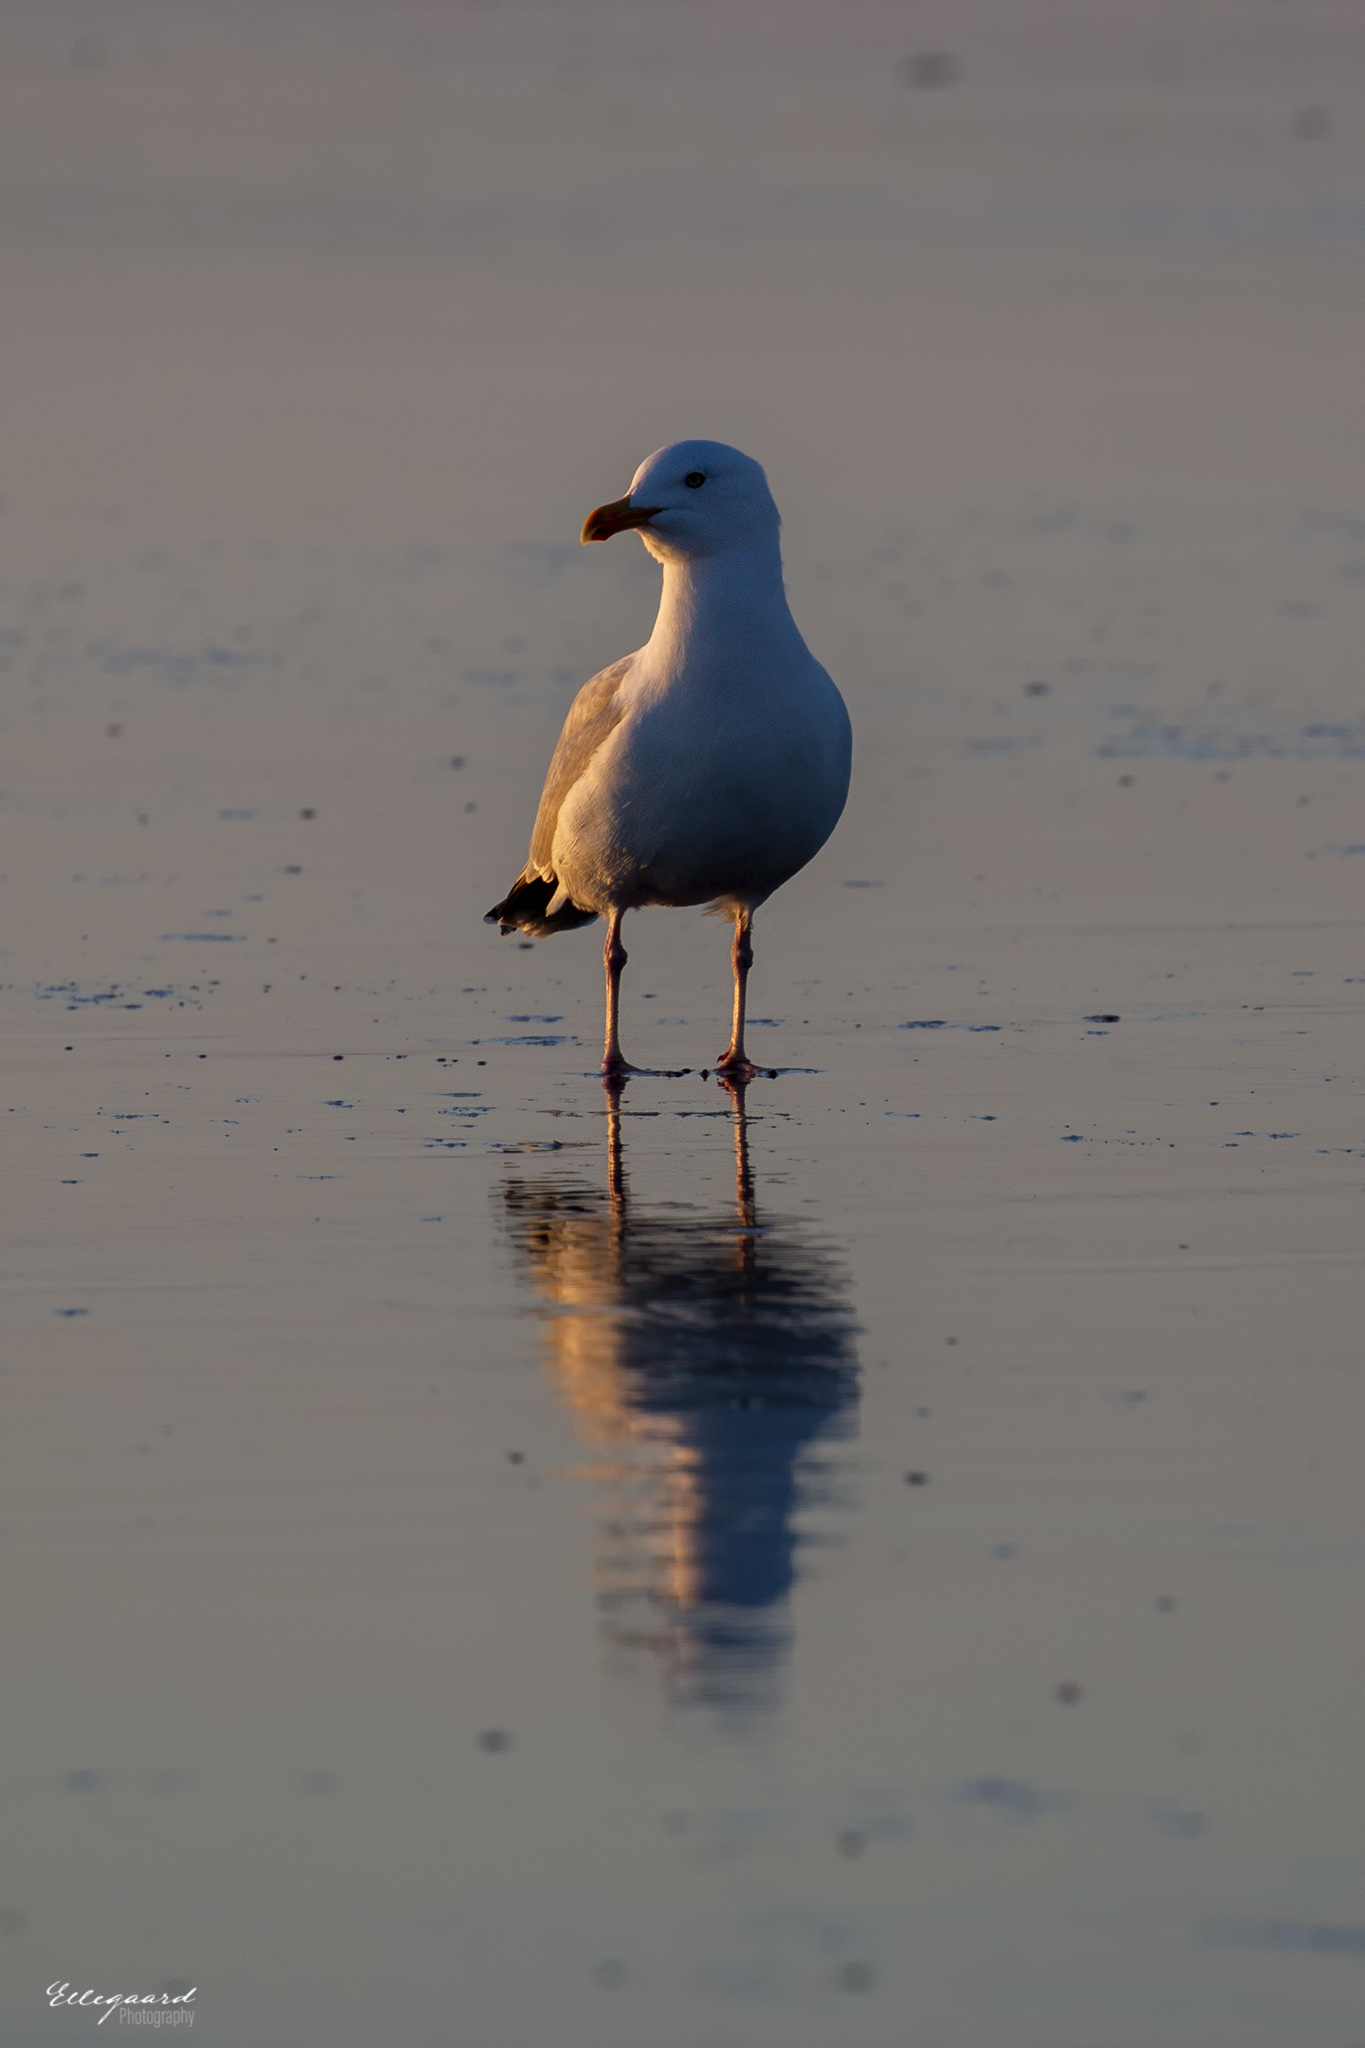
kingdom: Animalia
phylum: Chordata
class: Aves
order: Charadriiformes
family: Laridae
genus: Larus
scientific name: Larus argentatus
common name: Herring gull
